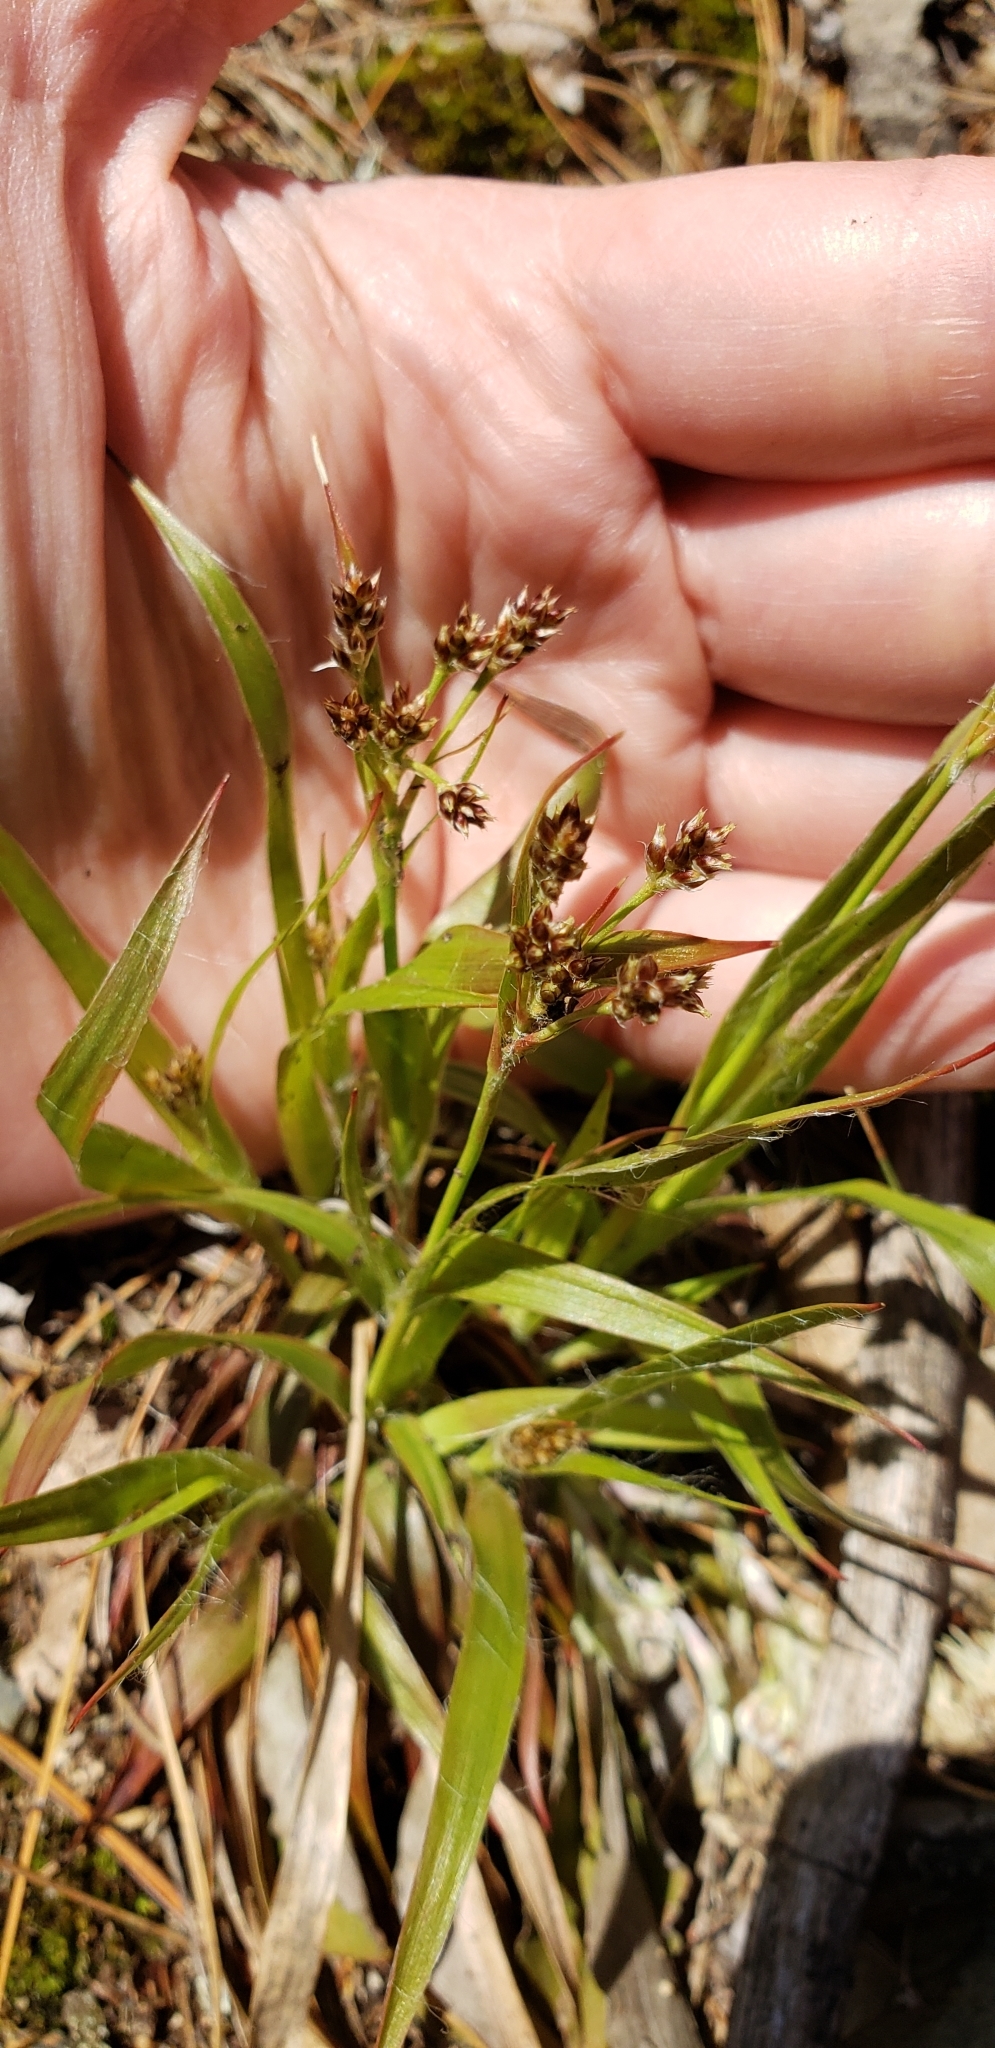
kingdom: Plantae
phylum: Tracheophyta
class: Liliopsida
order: Poales
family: Juncaceae
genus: Luzula
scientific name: Luzula multiflora
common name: Heath wood-rush
